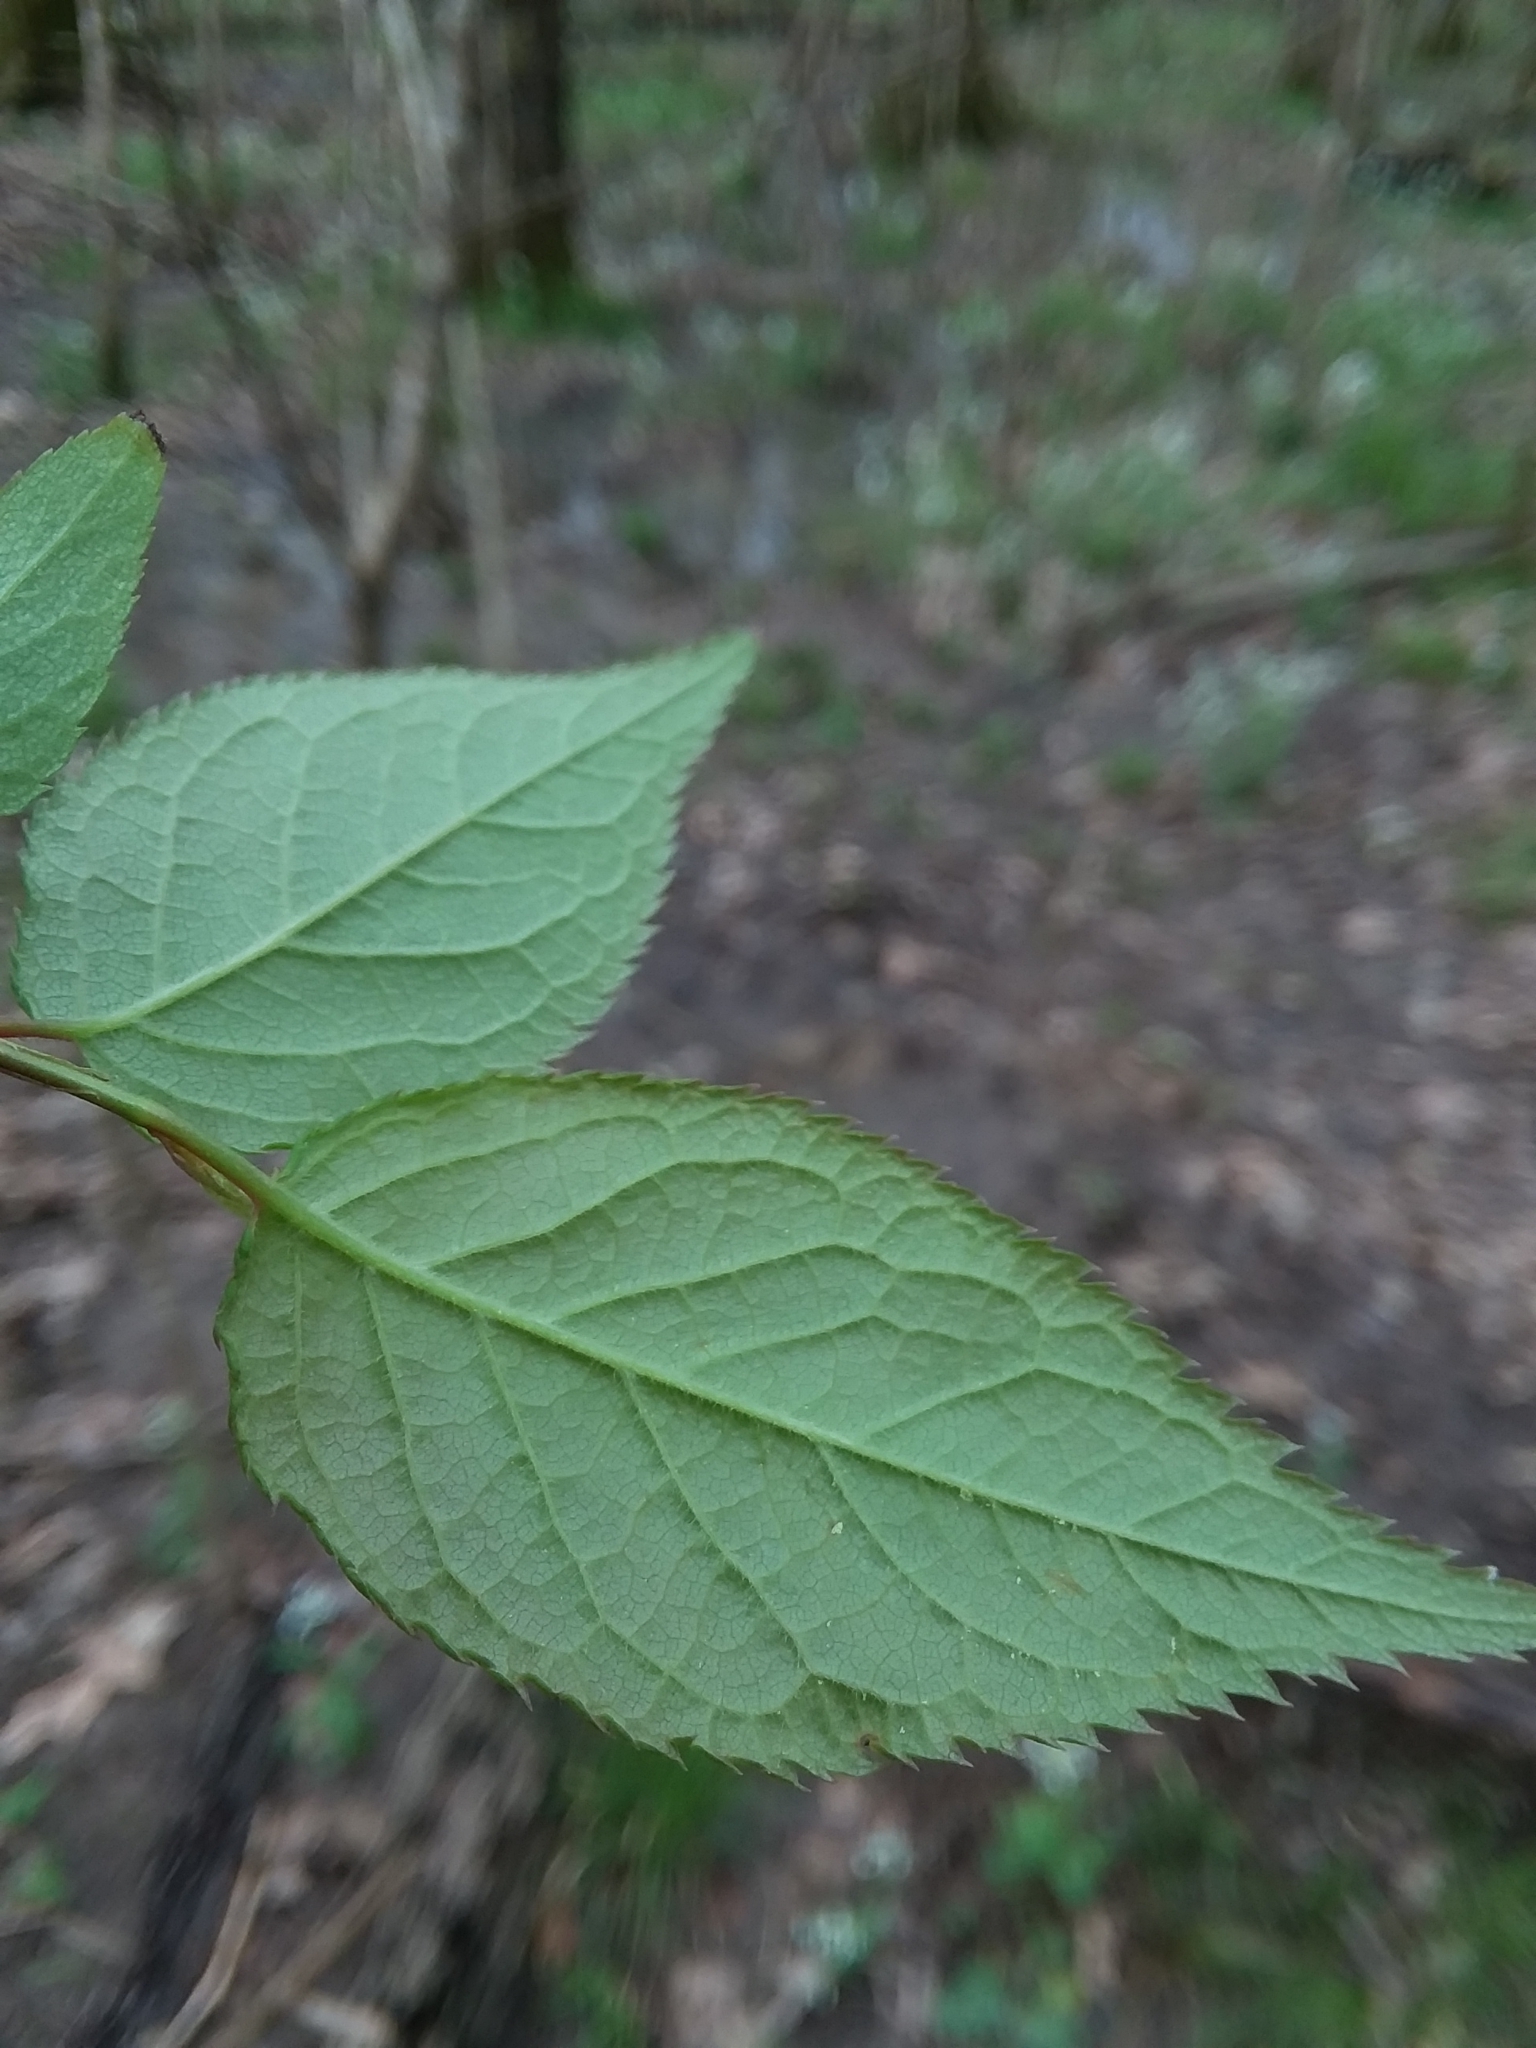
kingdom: Plantae
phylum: Tracheophyta
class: Magnoliopsida
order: Rosales
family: Rosaceae
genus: Prunus
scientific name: Prunus mexicana
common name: Mexican plum
